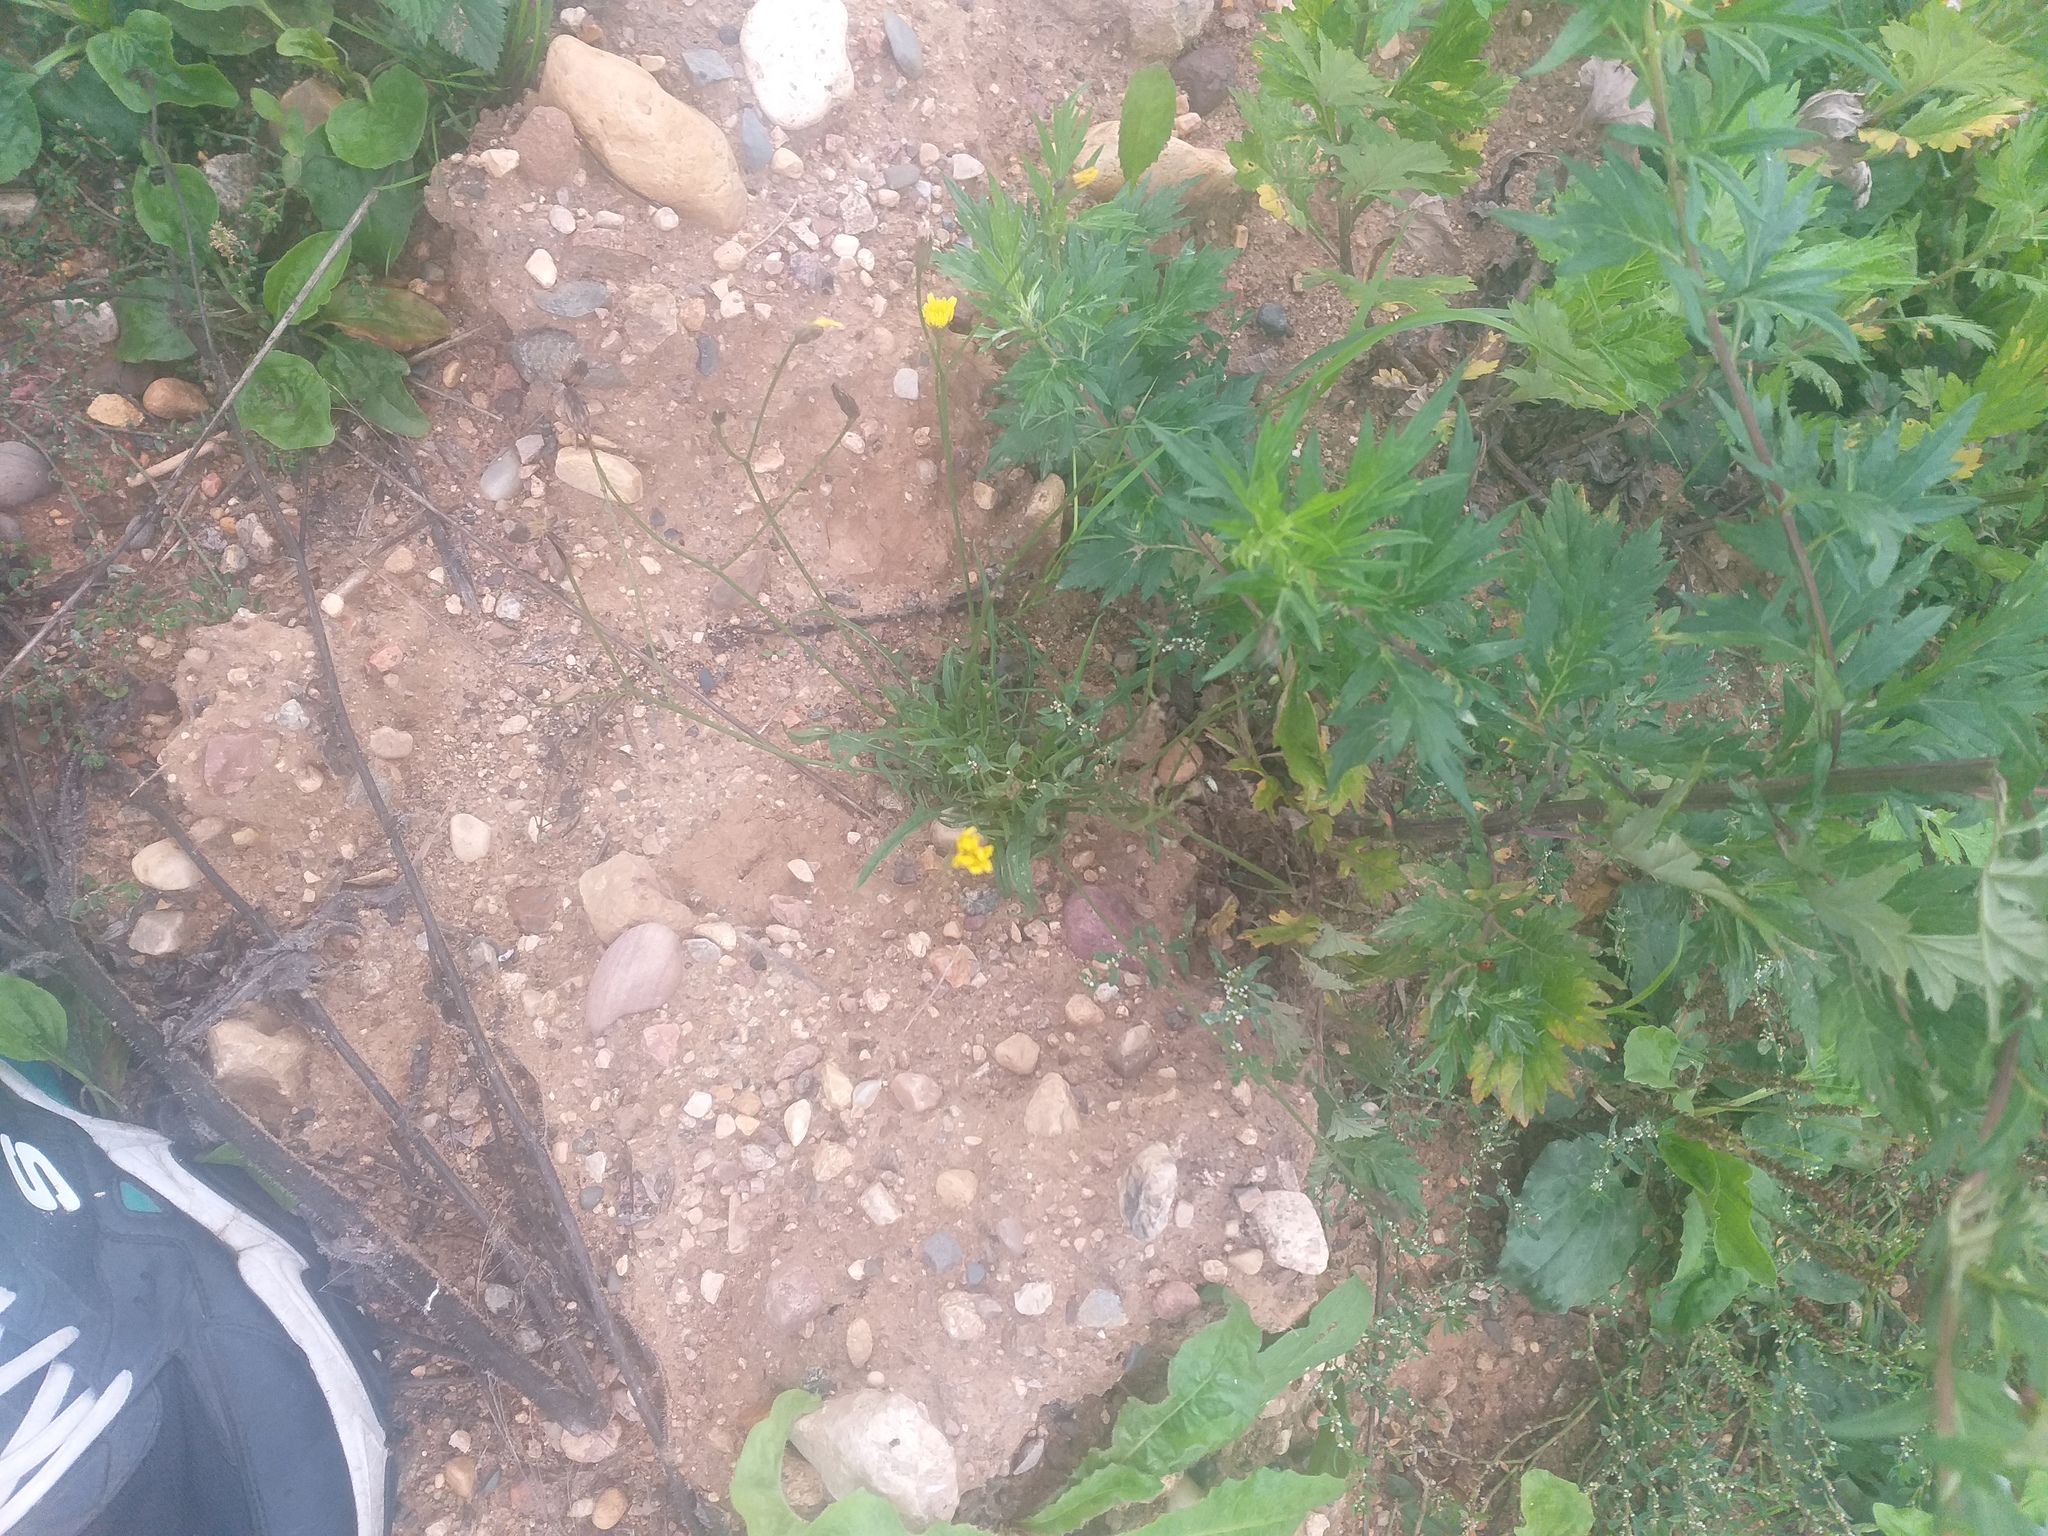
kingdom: Plantae
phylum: Tracheophyta
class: Magnoliopsida
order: Asterales
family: Asteraceae
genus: Scorzoneroides
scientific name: Scorzoneroides autumnalis
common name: Autumn hawkbit
